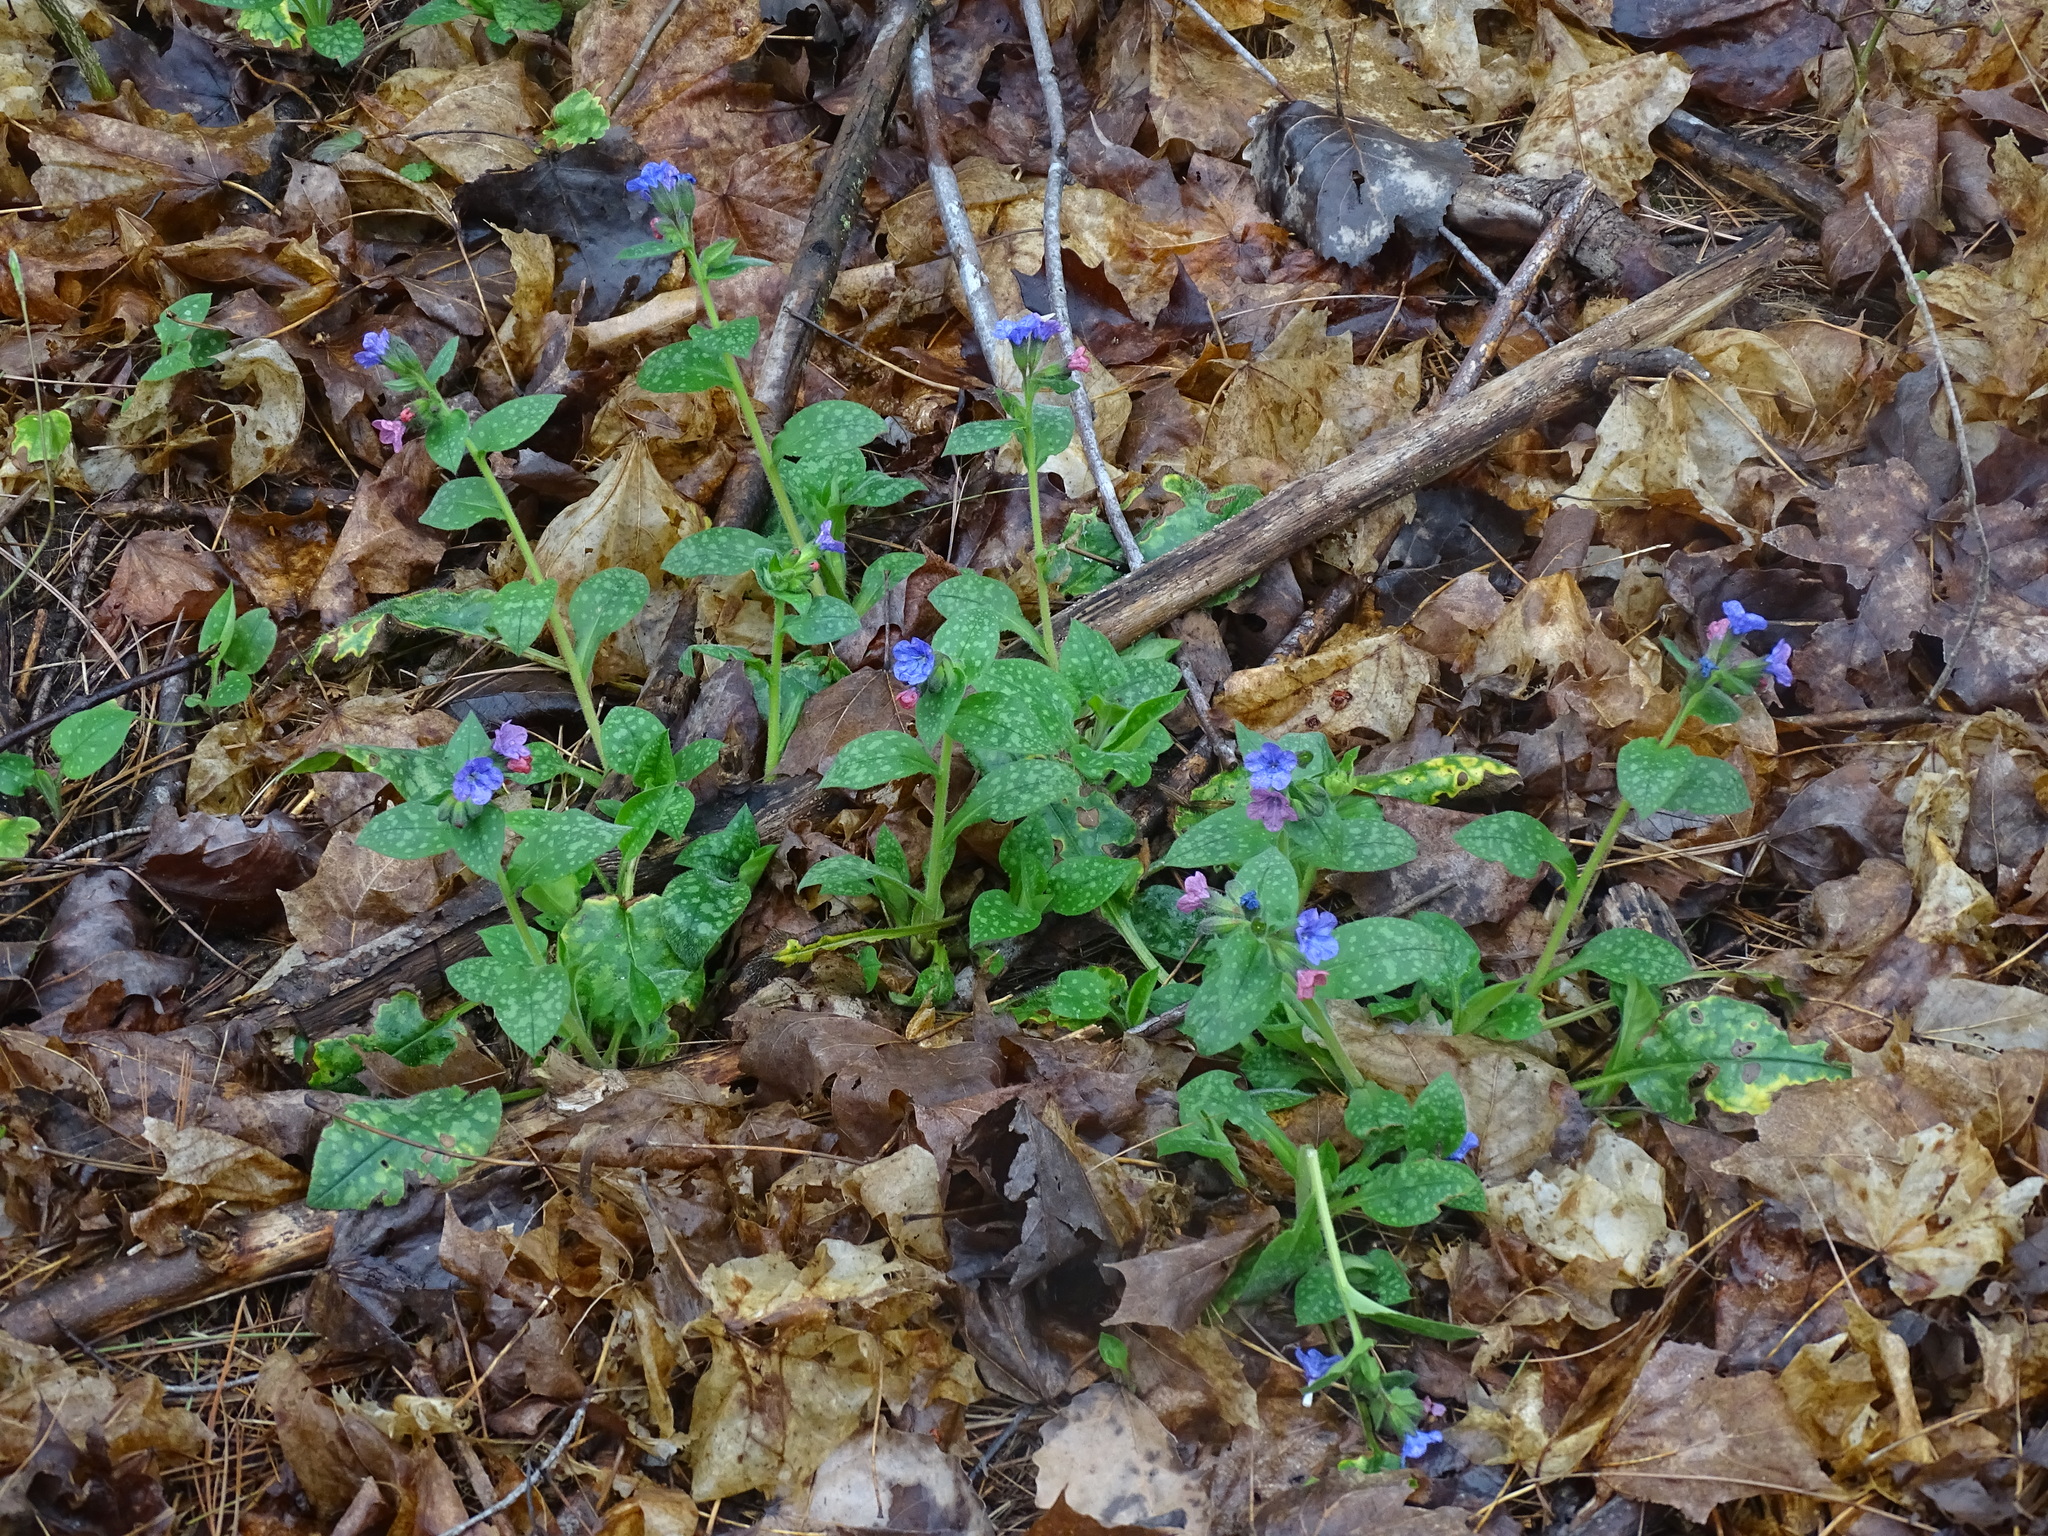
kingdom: Plantae
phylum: Tracheophyta
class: Magnoliopsida
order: Boraginales
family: Boraginaceae
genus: Pulmonaria
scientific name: Pulmonaria officinalis
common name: Lungwort
